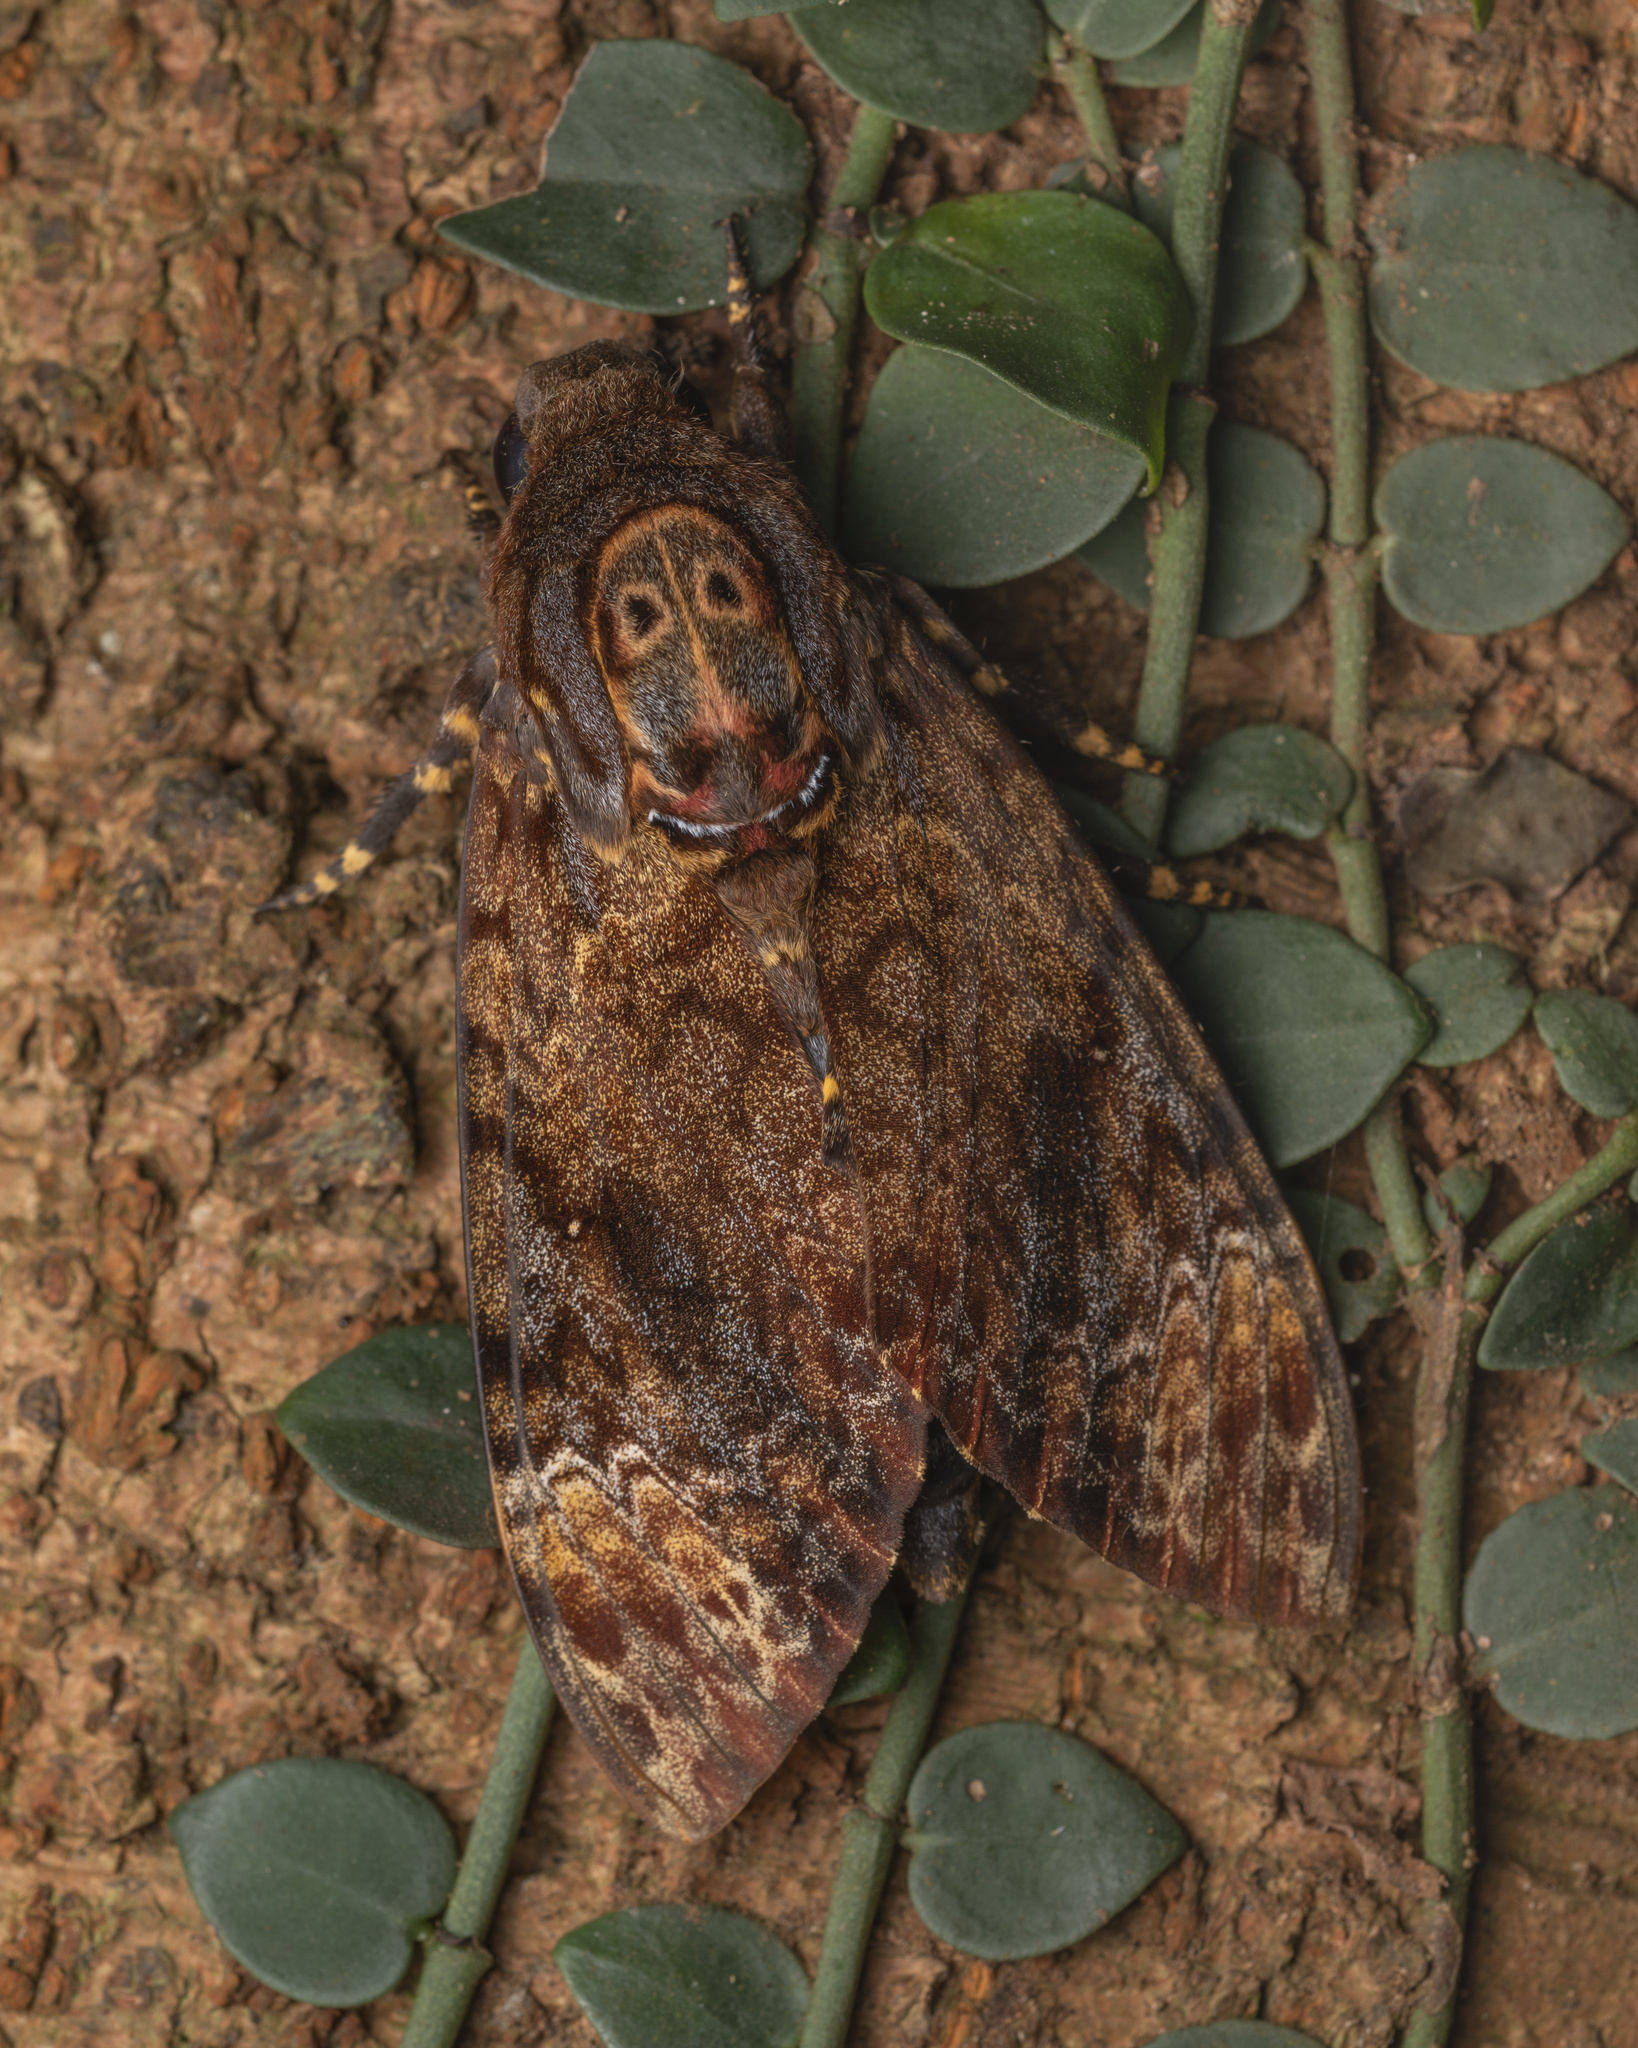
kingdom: Animalia
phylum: Arthropoda
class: Insecta
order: Lepidoptera
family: Sphingidae
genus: Acherontia
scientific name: Acherontia lachesis
